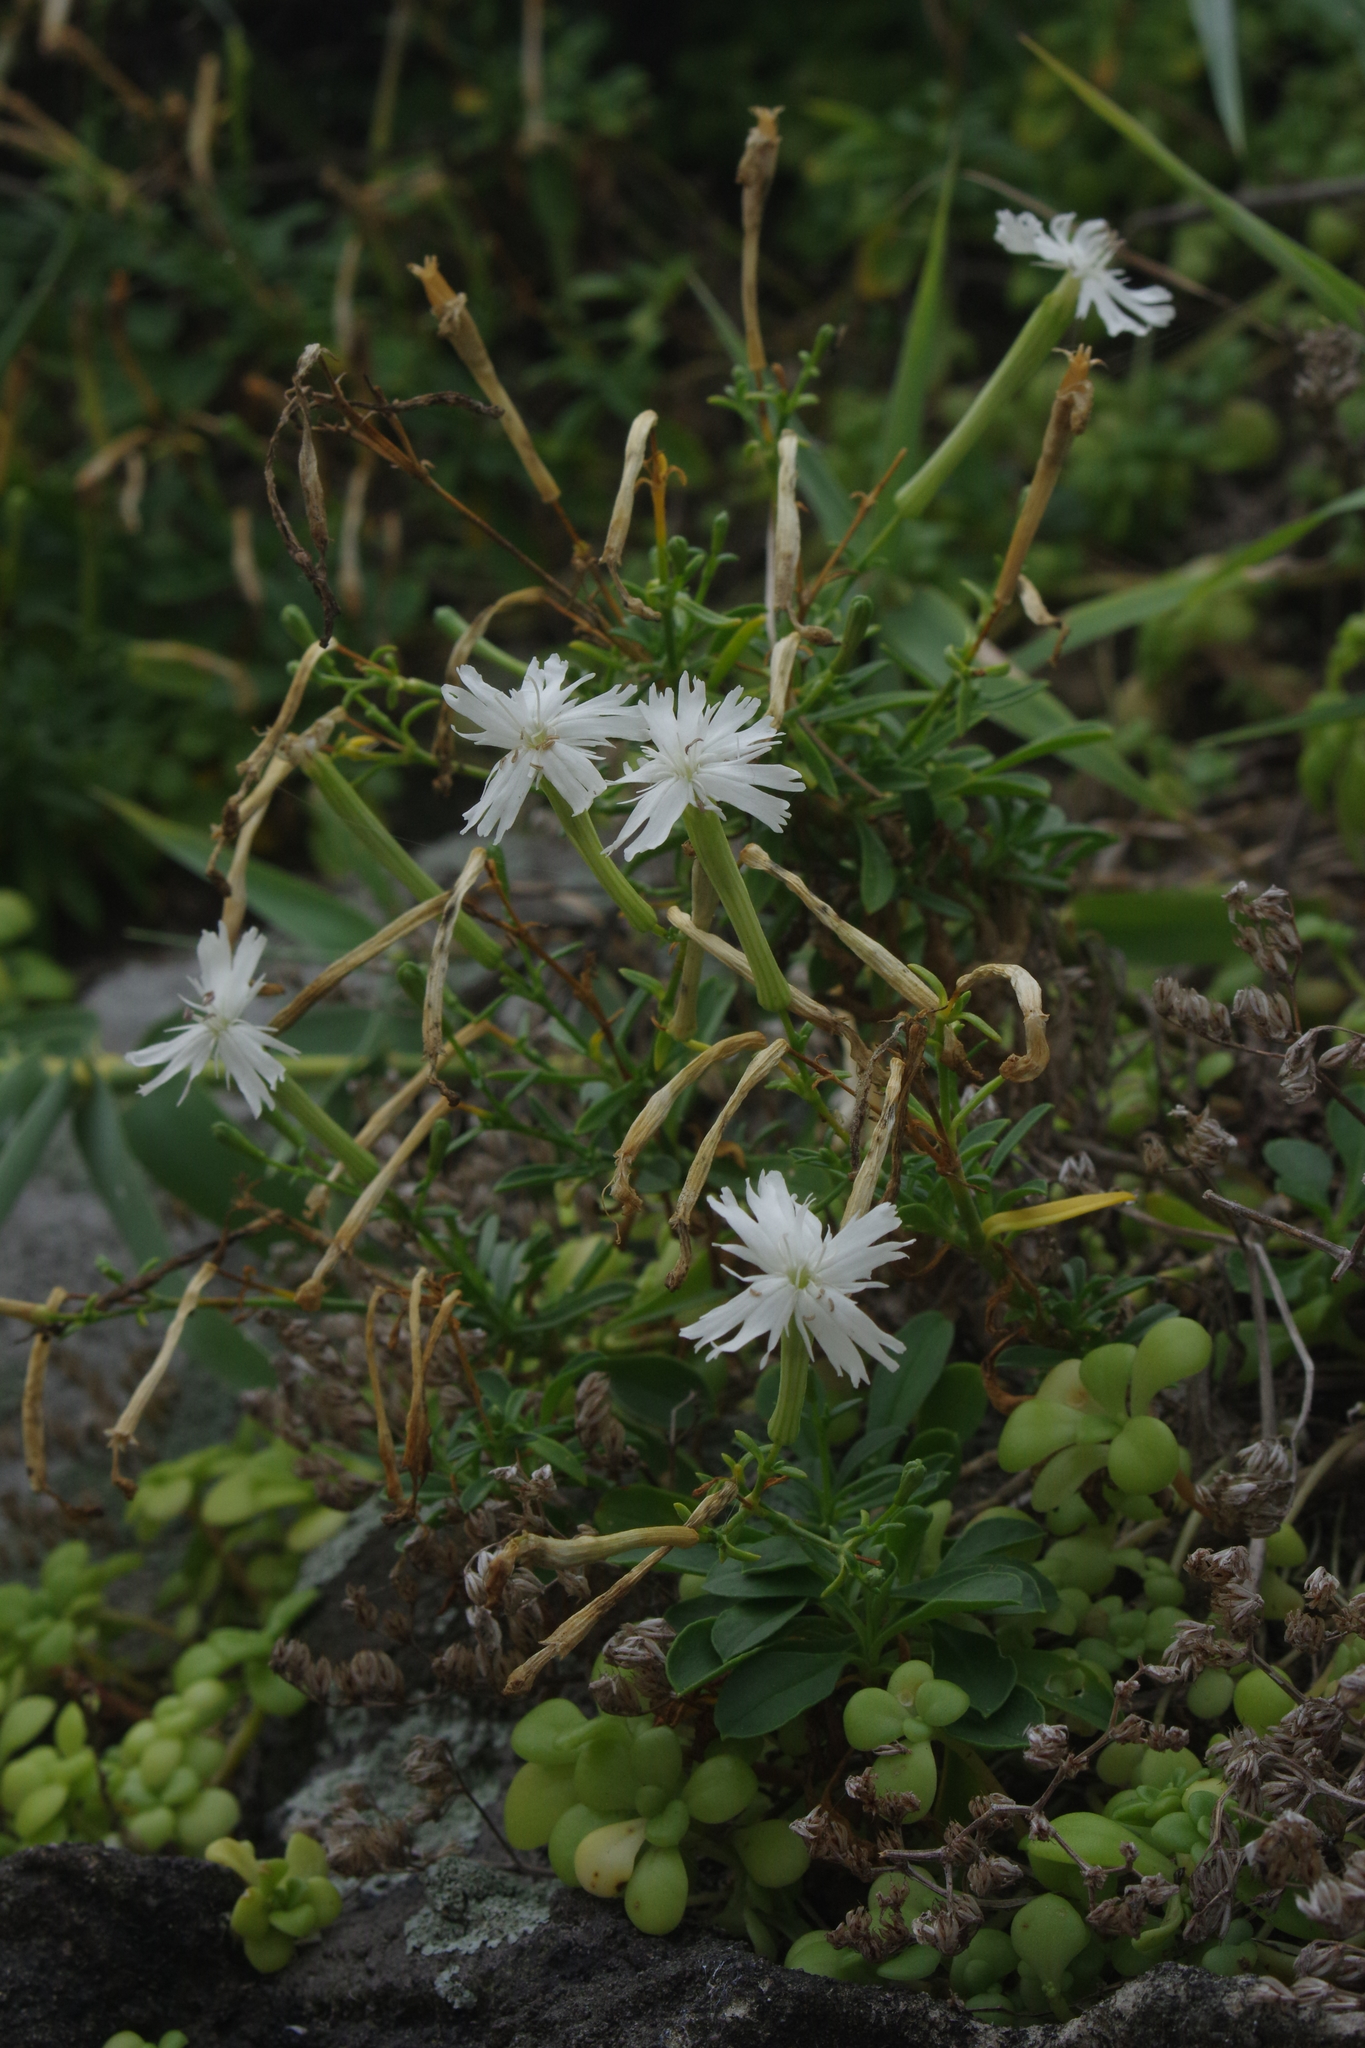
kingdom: Plantae
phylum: Tracheophyta
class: Magnoliopsida
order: Caryophyllales
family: Caryophyllaceae
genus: Silene
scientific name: Silene fissipetala
